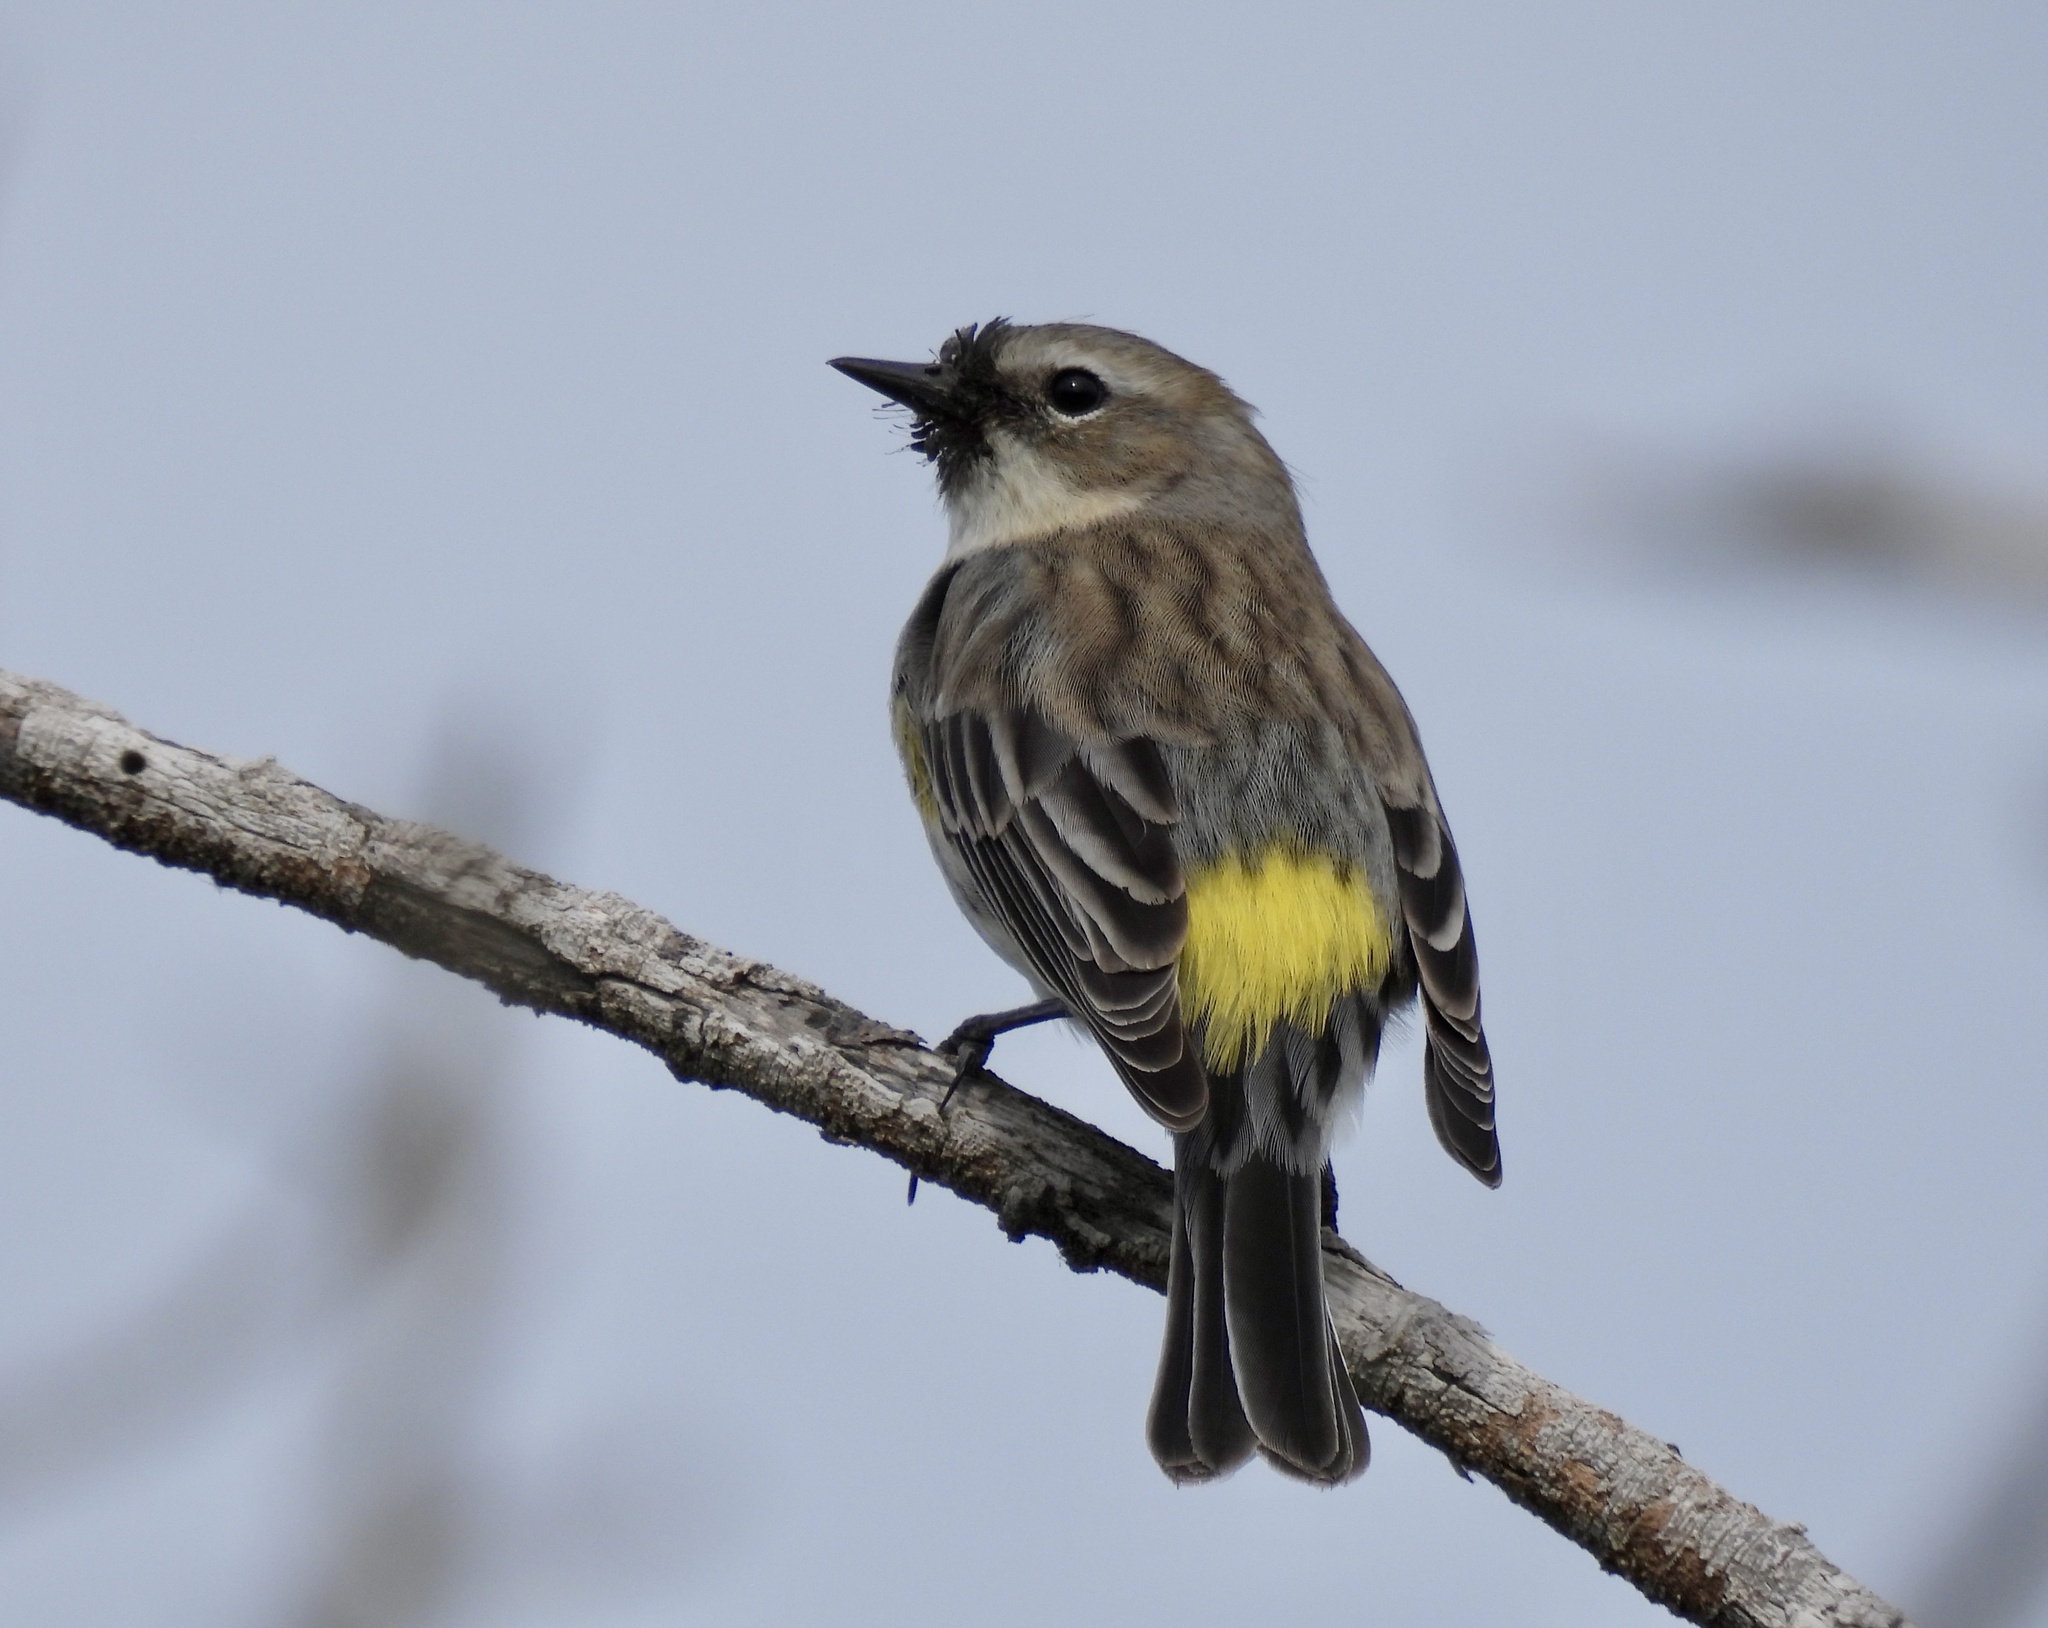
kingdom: Animalia
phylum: Chordata
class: Aves
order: Passeriformes
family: Parulidae
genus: Setophaga
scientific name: Setophaga coronata
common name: Myrtle warbler
